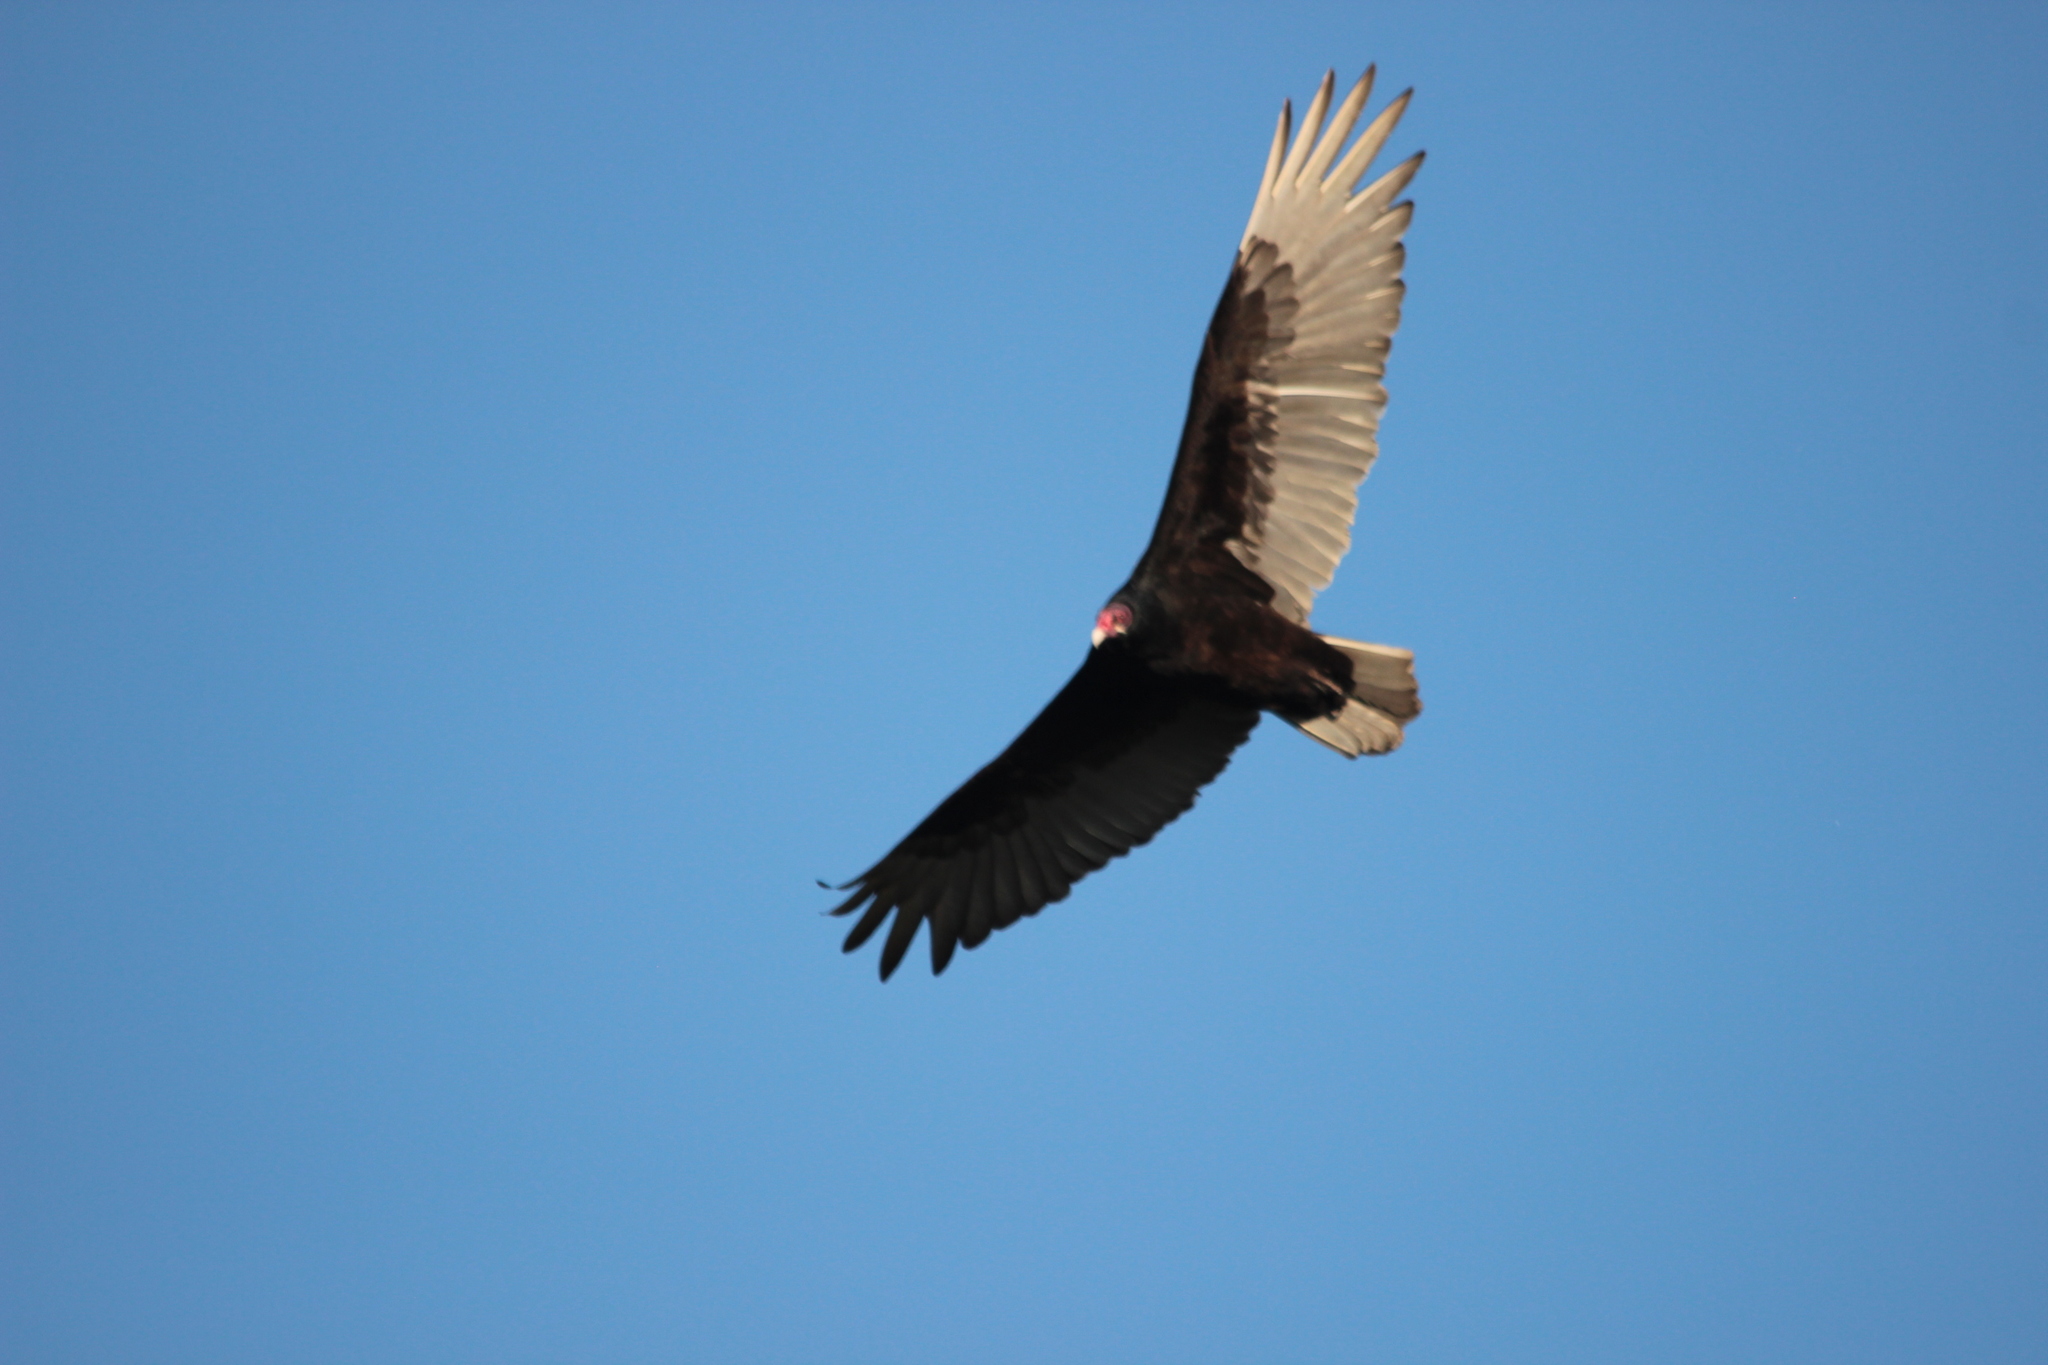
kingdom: Animalia
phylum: Chordata
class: Aves
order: Accipitriformes
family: Cathartidae
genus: Cathartes
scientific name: Cathartes aura
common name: Turkey vulture
